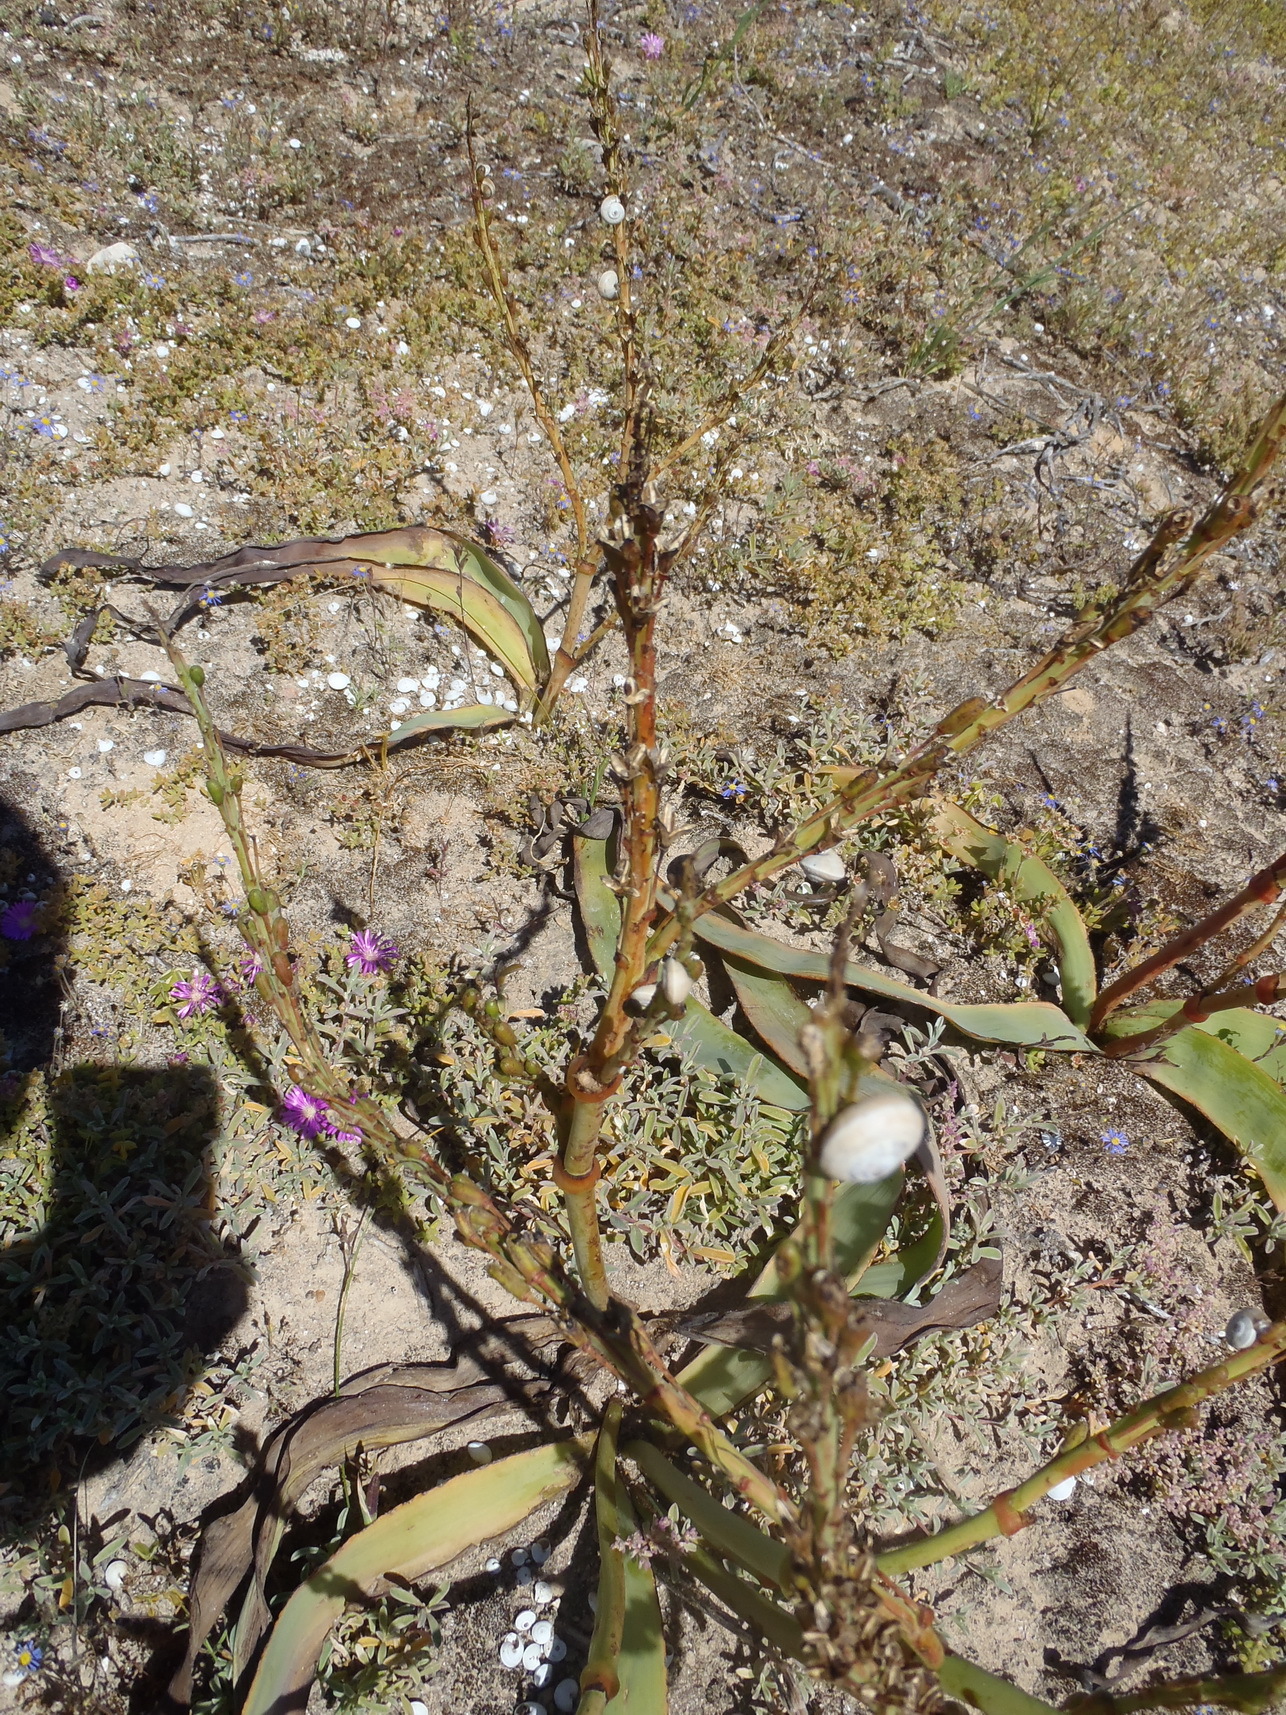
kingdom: Plantae
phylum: Tracheophyta
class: Liliopsida
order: Asparagales
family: Asphodelaceae
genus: Trachyandra
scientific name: Trachyandra falcata
